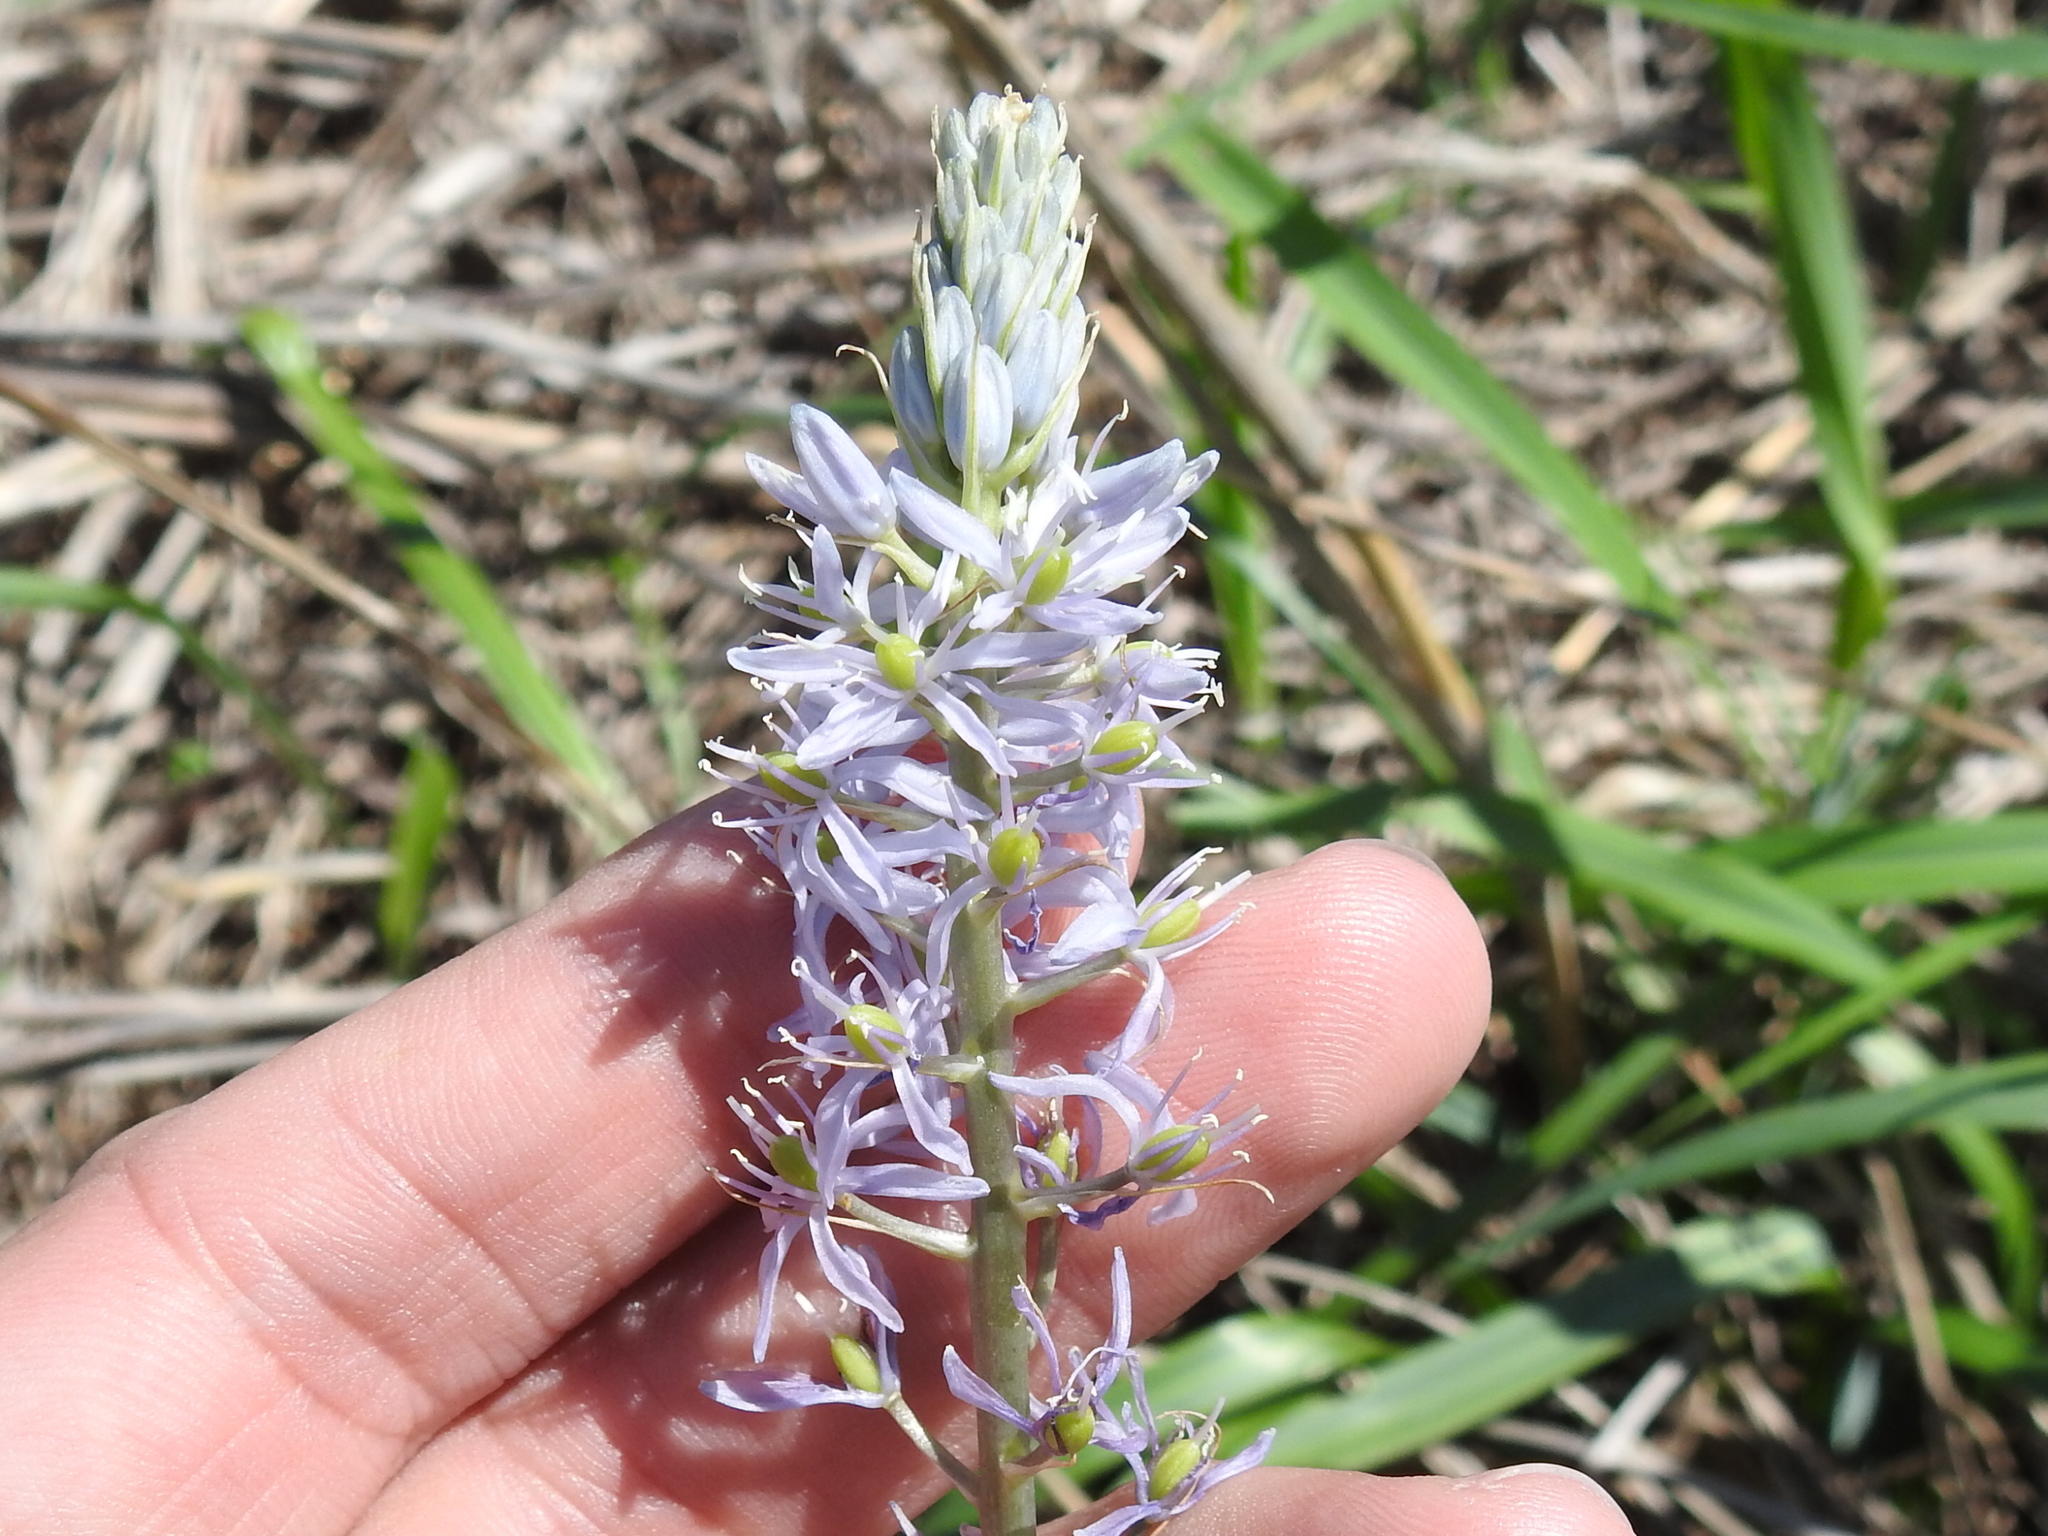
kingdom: Plantae
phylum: Tracheophyta
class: Liliopsida
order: Asparagales
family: Asparagaceae
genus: Camassia
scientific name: Camassia scilloides
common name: Wild hyacinth
